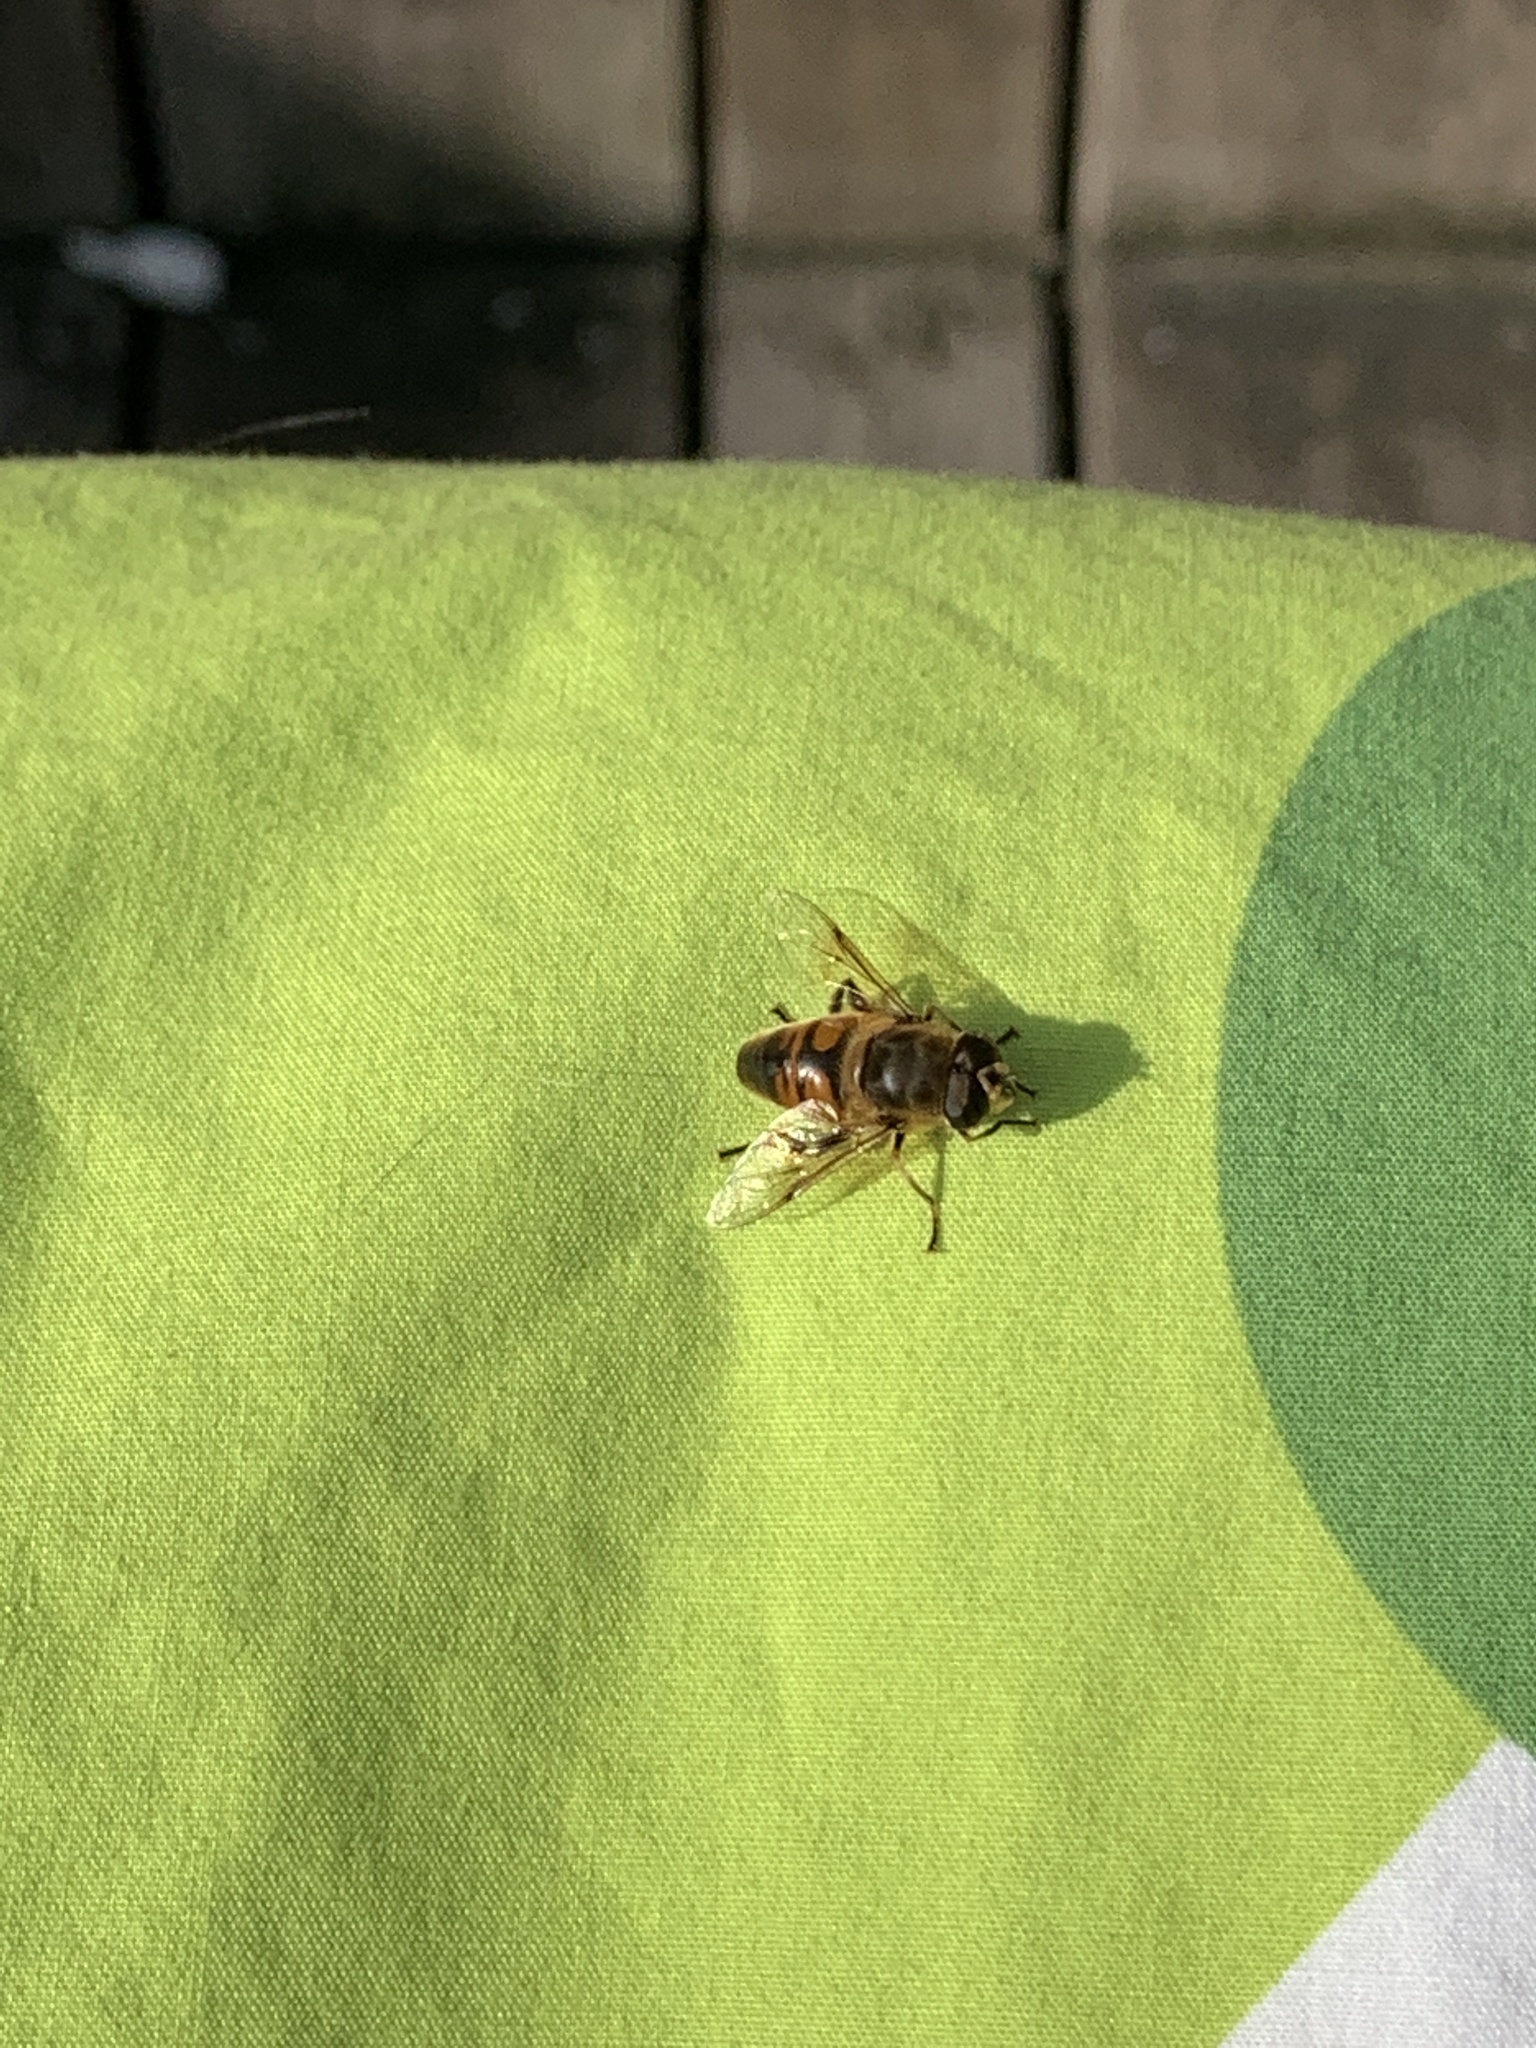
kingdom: Animalia
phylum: Arthropoda
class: Insecta
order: Diptera
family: Syrphidae
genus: Eristalis
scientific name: Eristalis tenax
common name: Drone fly
